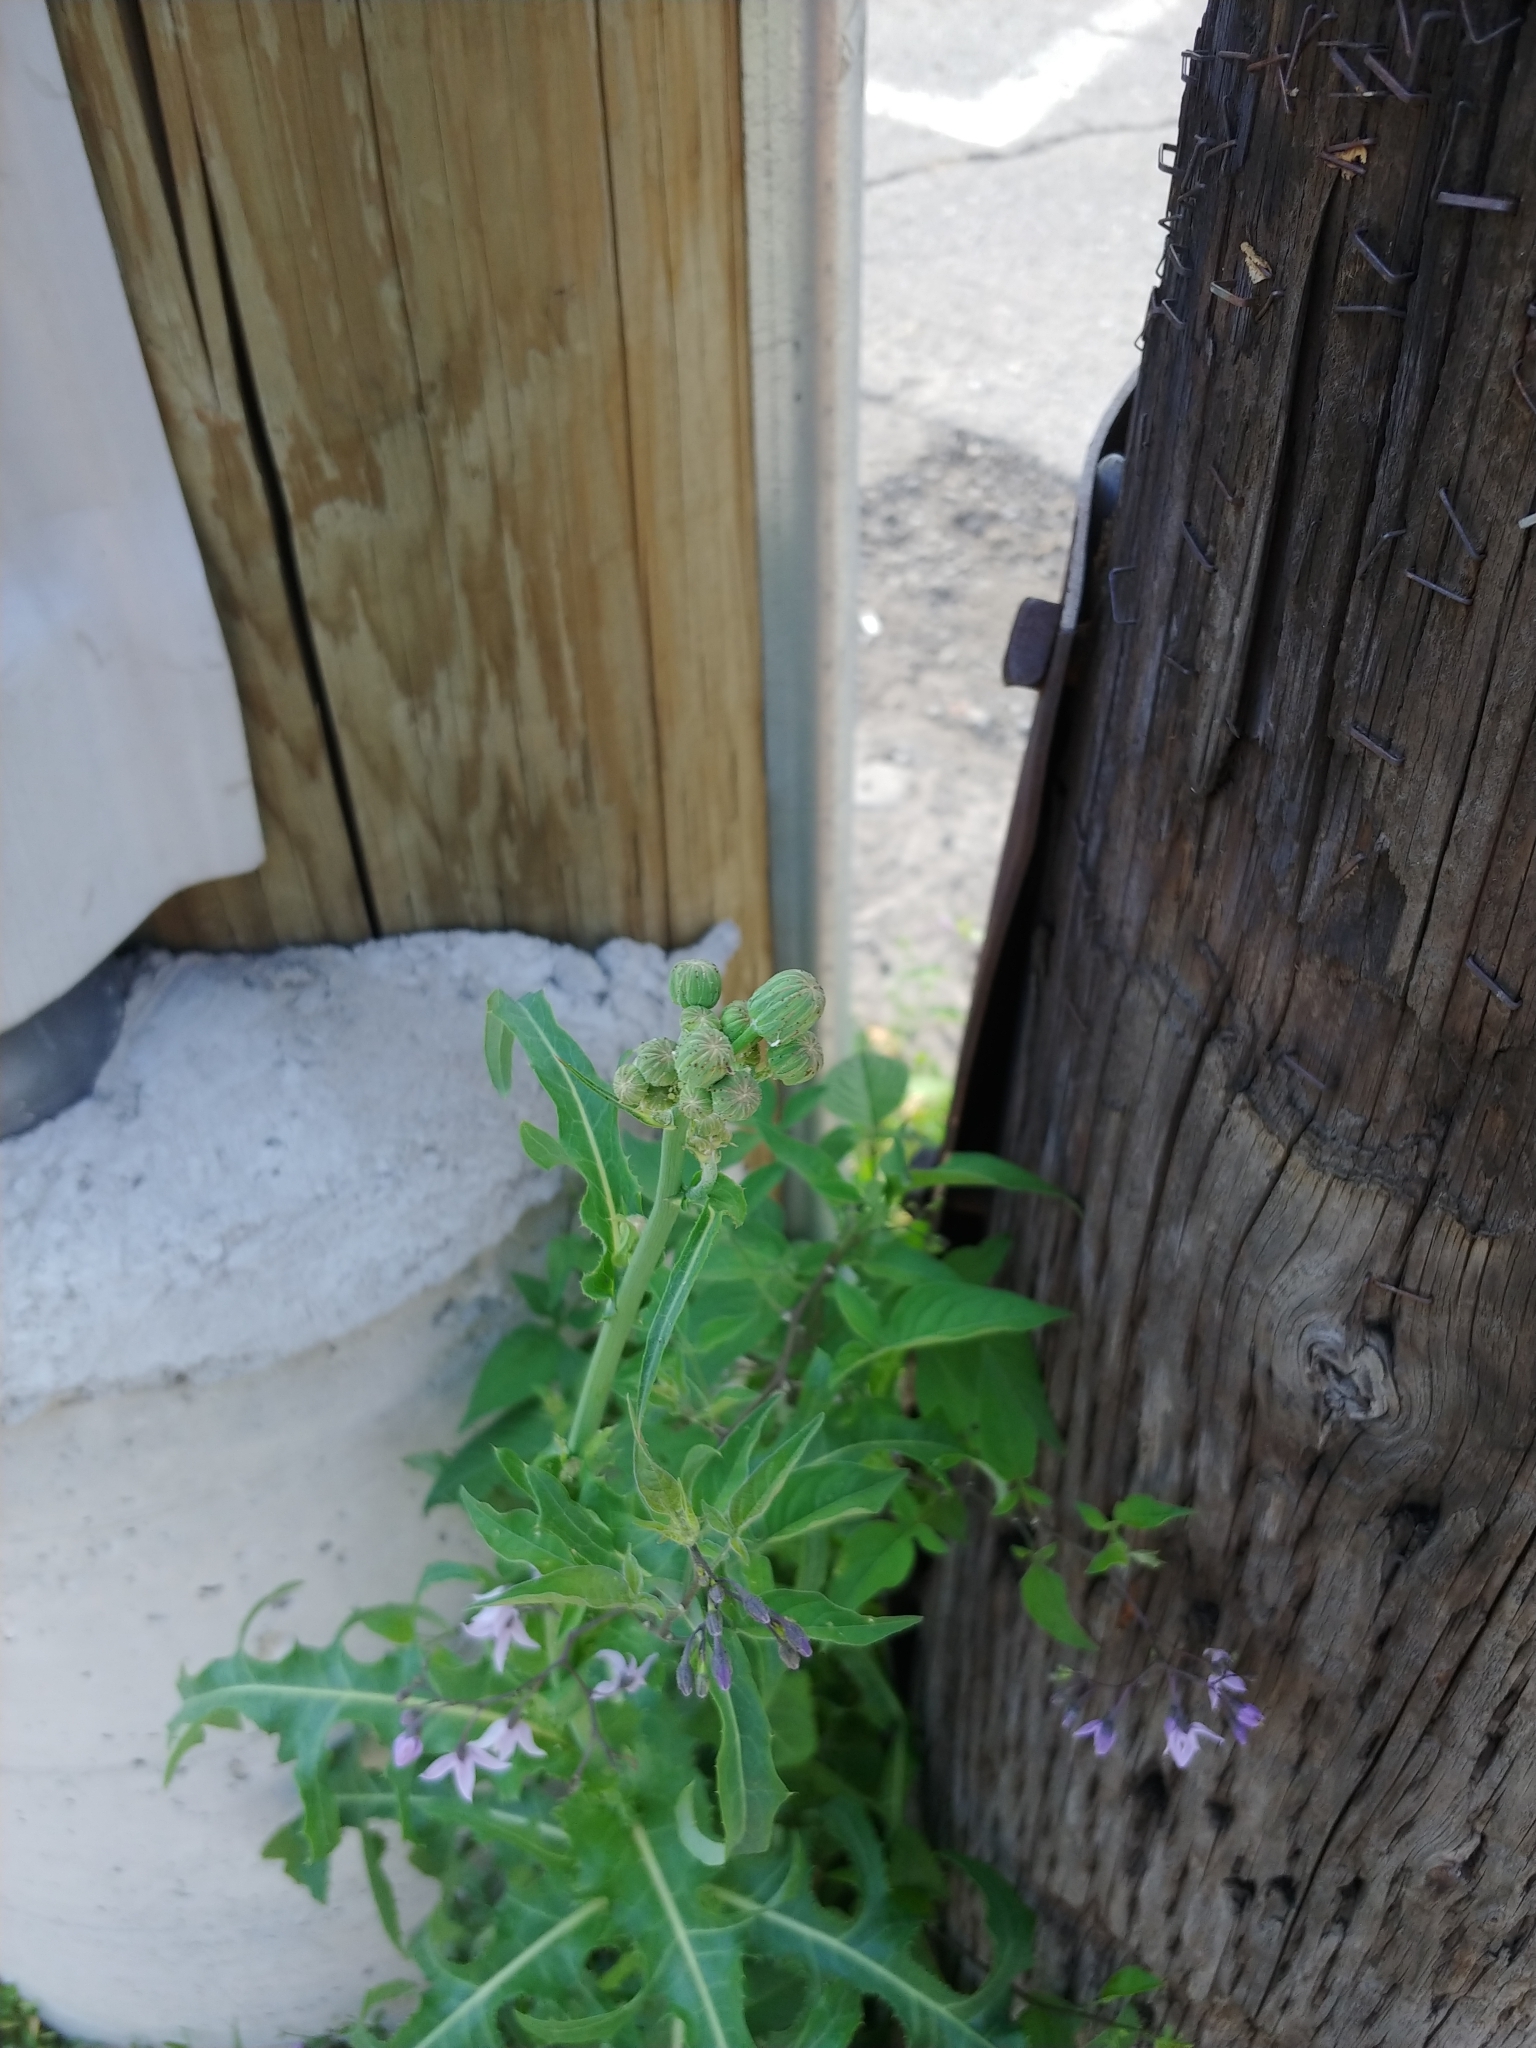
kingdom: Plantae
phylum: Tracheophyta
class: Magnoliopsida
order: Asterales
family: Asteraceae
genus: Sonchus
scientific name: Sonchus arvensis
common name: Perennial sow-thistle
